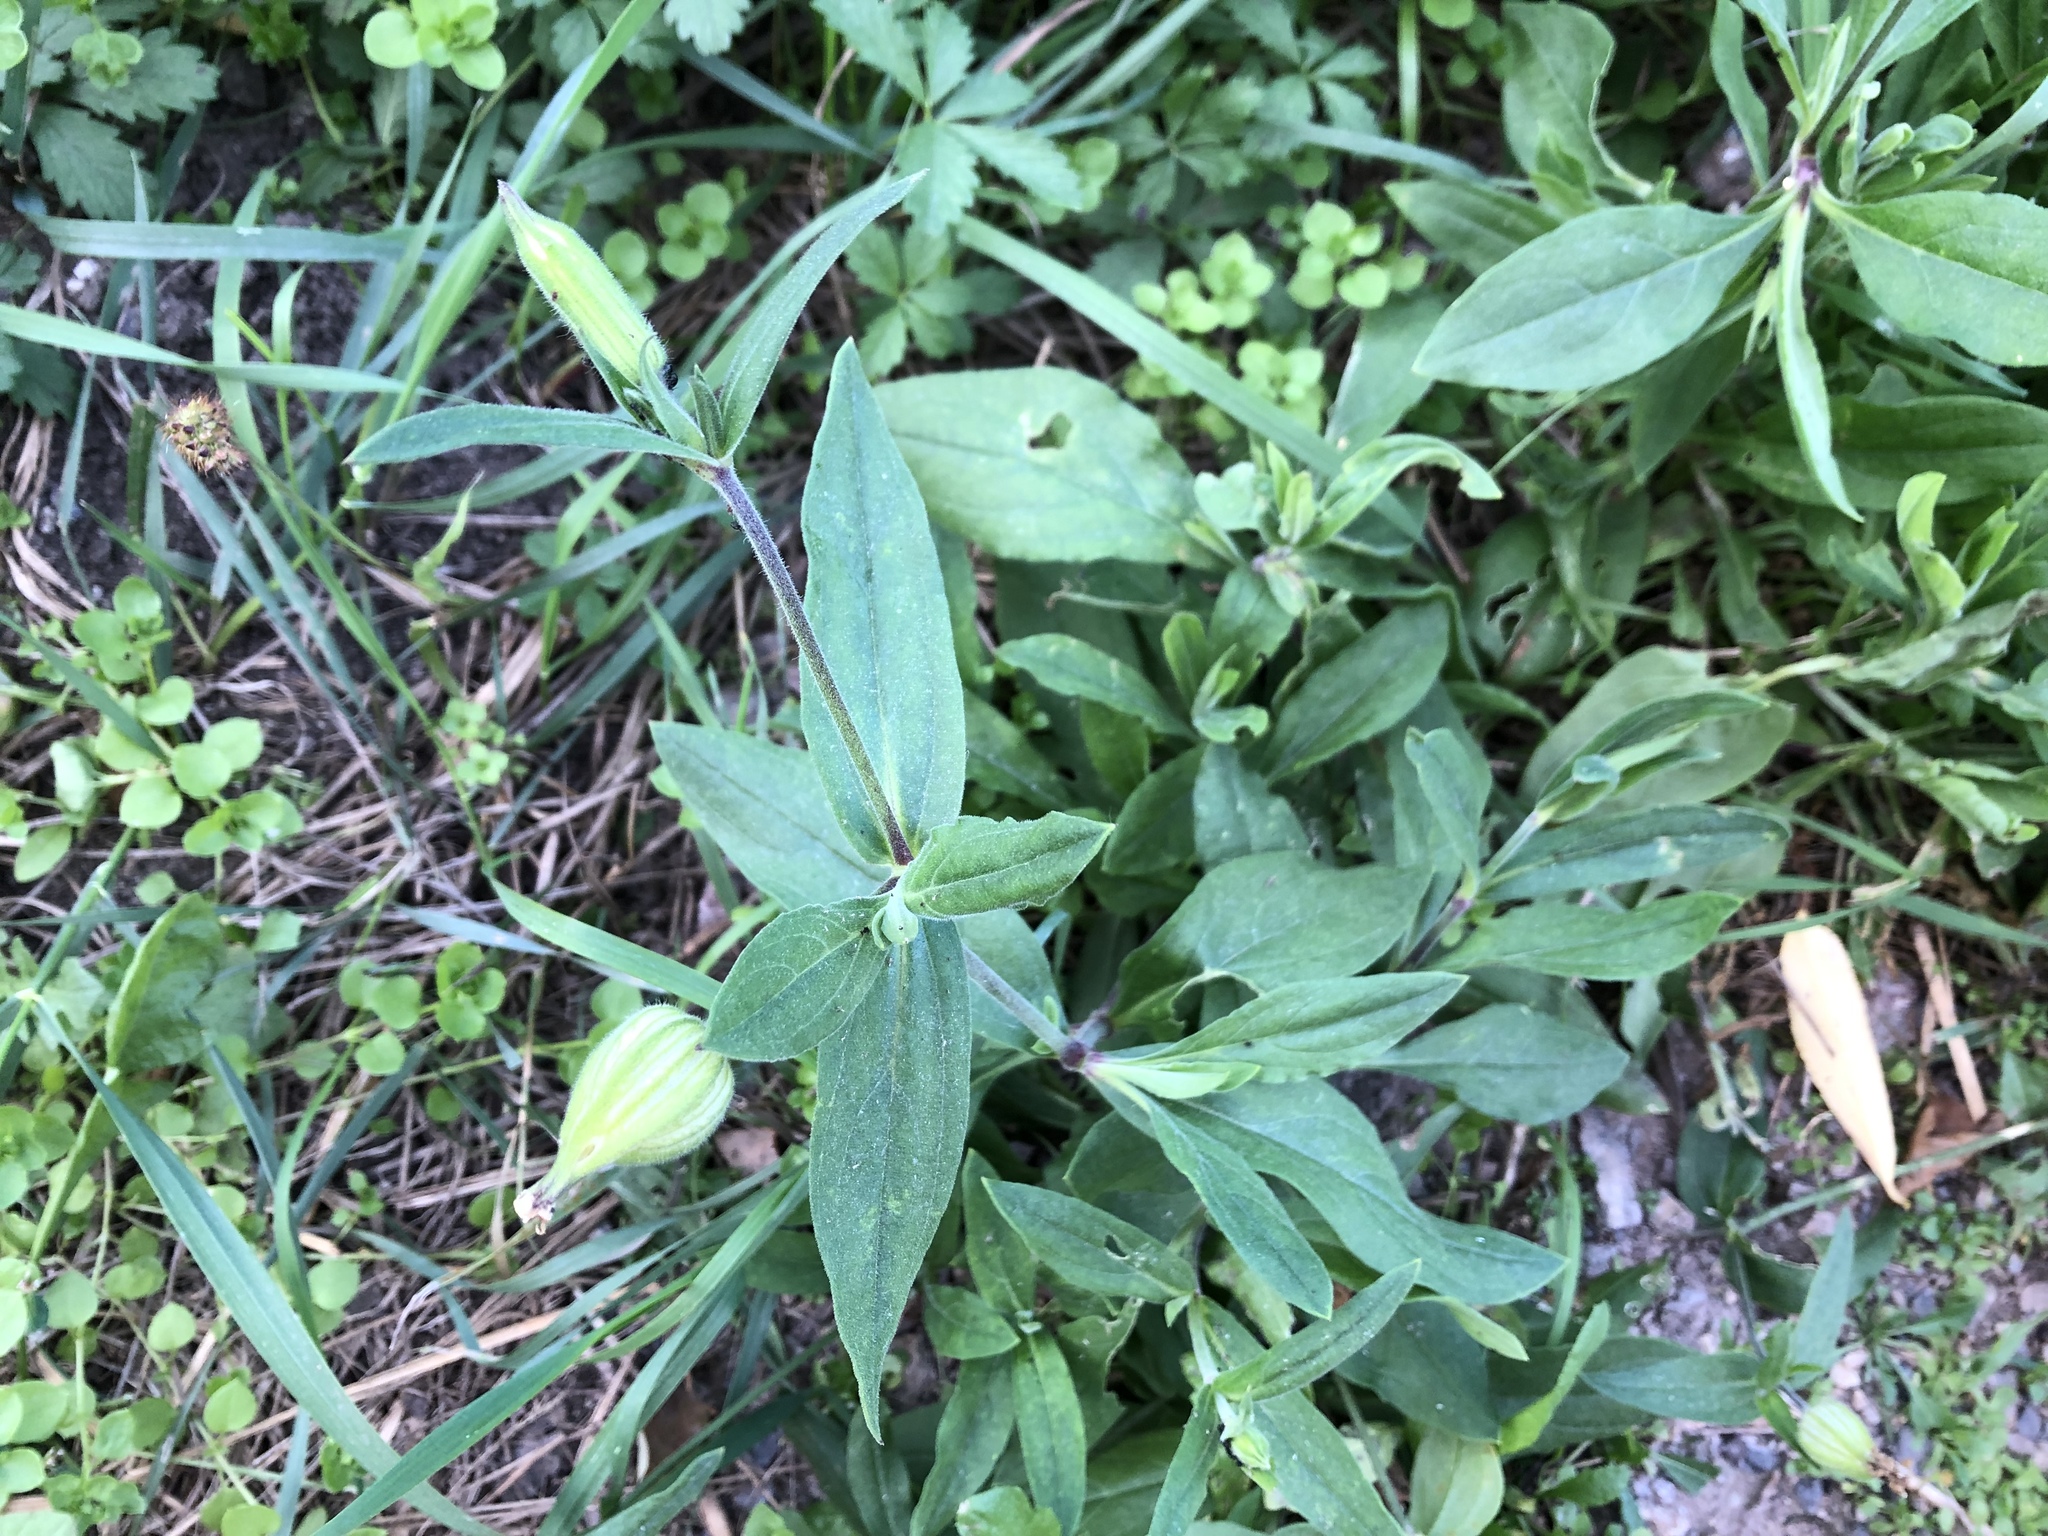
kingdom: Plantae
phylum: Tracheophyta
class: Magnoliopsida
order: Caryophyllales
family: Caryophyllaceae
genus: Silene
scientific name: Silene latifolia
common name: White campion
